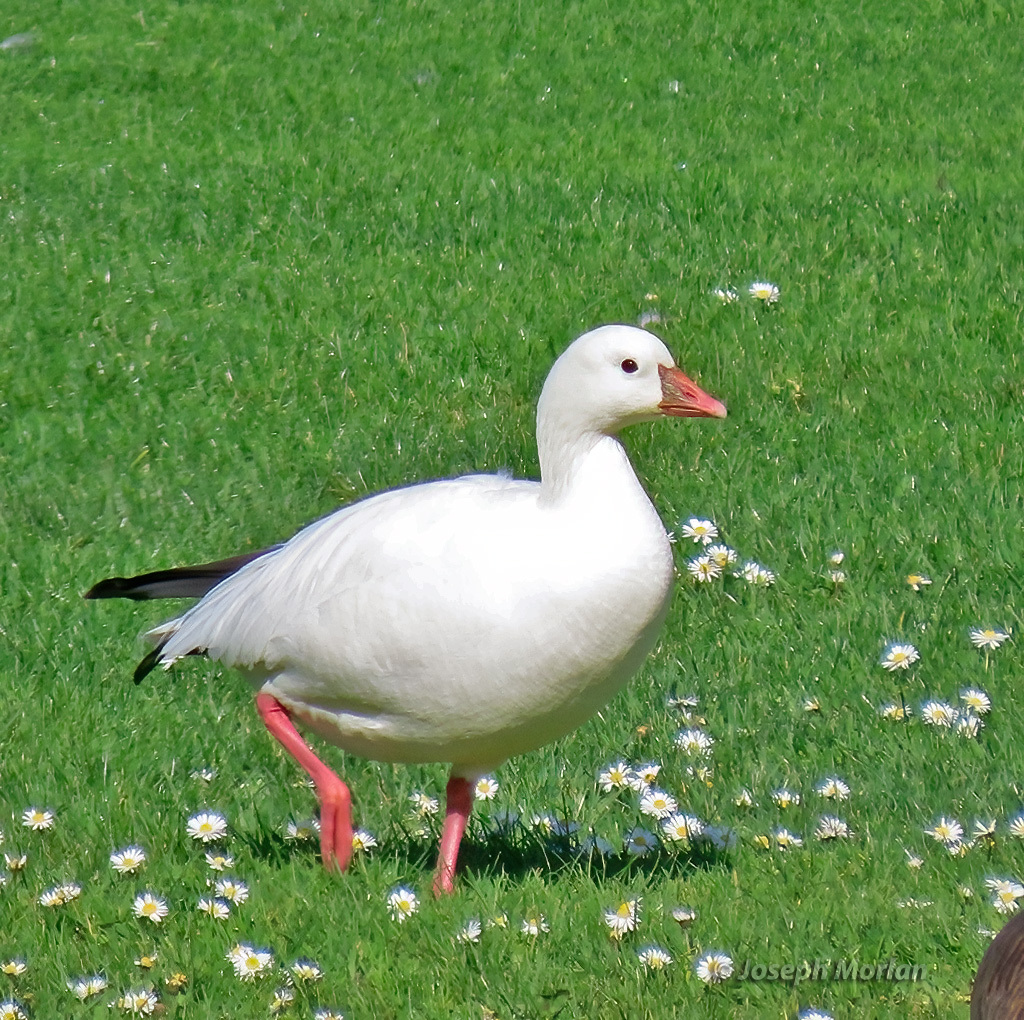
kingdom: Animalia
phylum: Chordata
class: Aves
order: Anseriformes
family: Anatidae
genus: Anser
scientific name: Anser rossii
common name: Ross's goose
